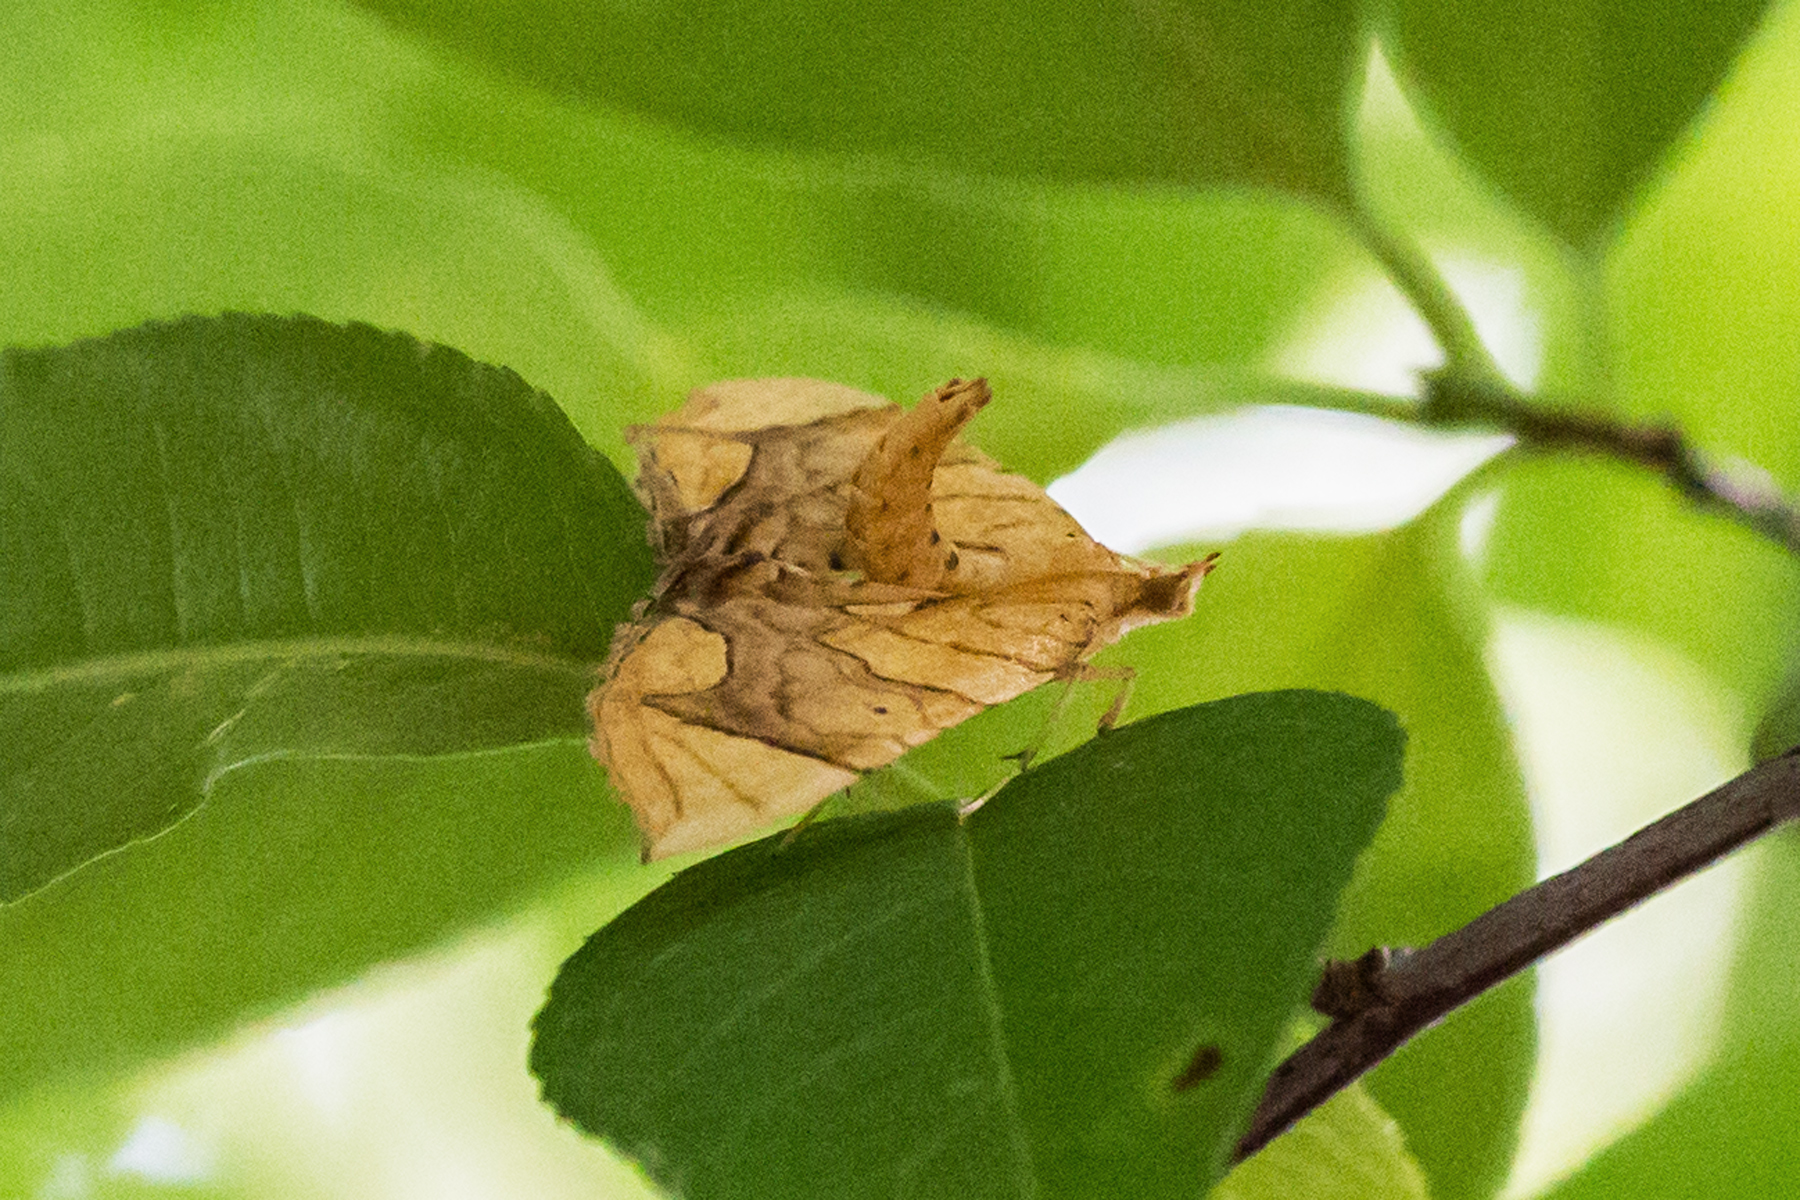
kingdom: Animalia
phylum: Arthropoda
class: Insecta
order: Lepidoptera
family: Geometridae
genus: Eulithis
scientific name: Eulithis diversilineata
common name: Grapevine looper
